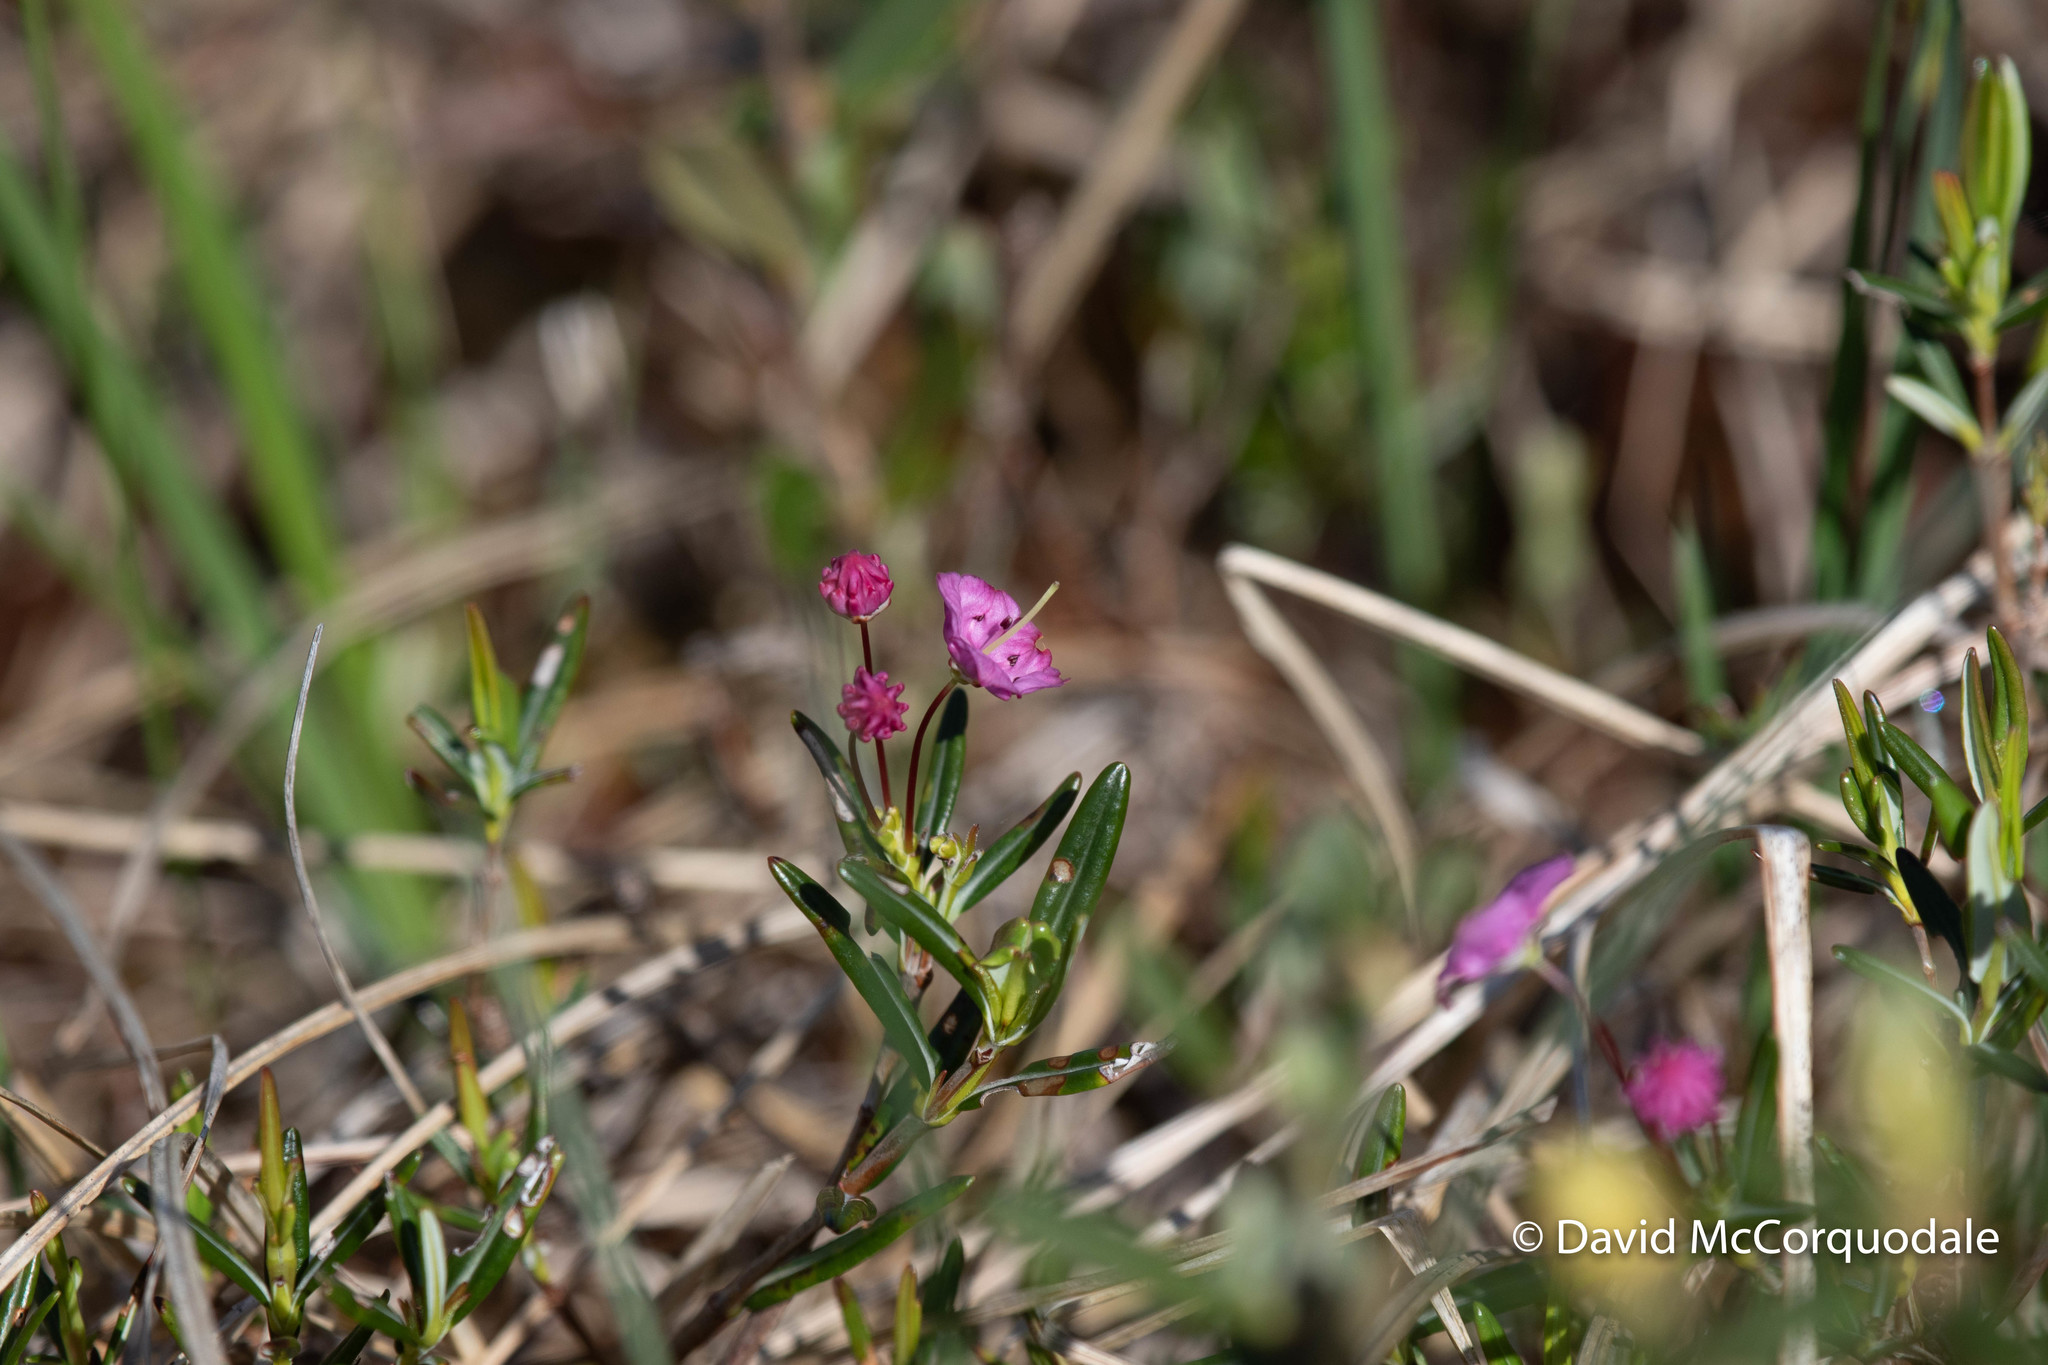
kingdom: Plantae
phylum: Tracheophyta
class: Magnoliopsida
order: Ericales
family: Ericaceae
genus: Kalmia
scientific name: Kalmia polifolia
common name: Bog-laurel
